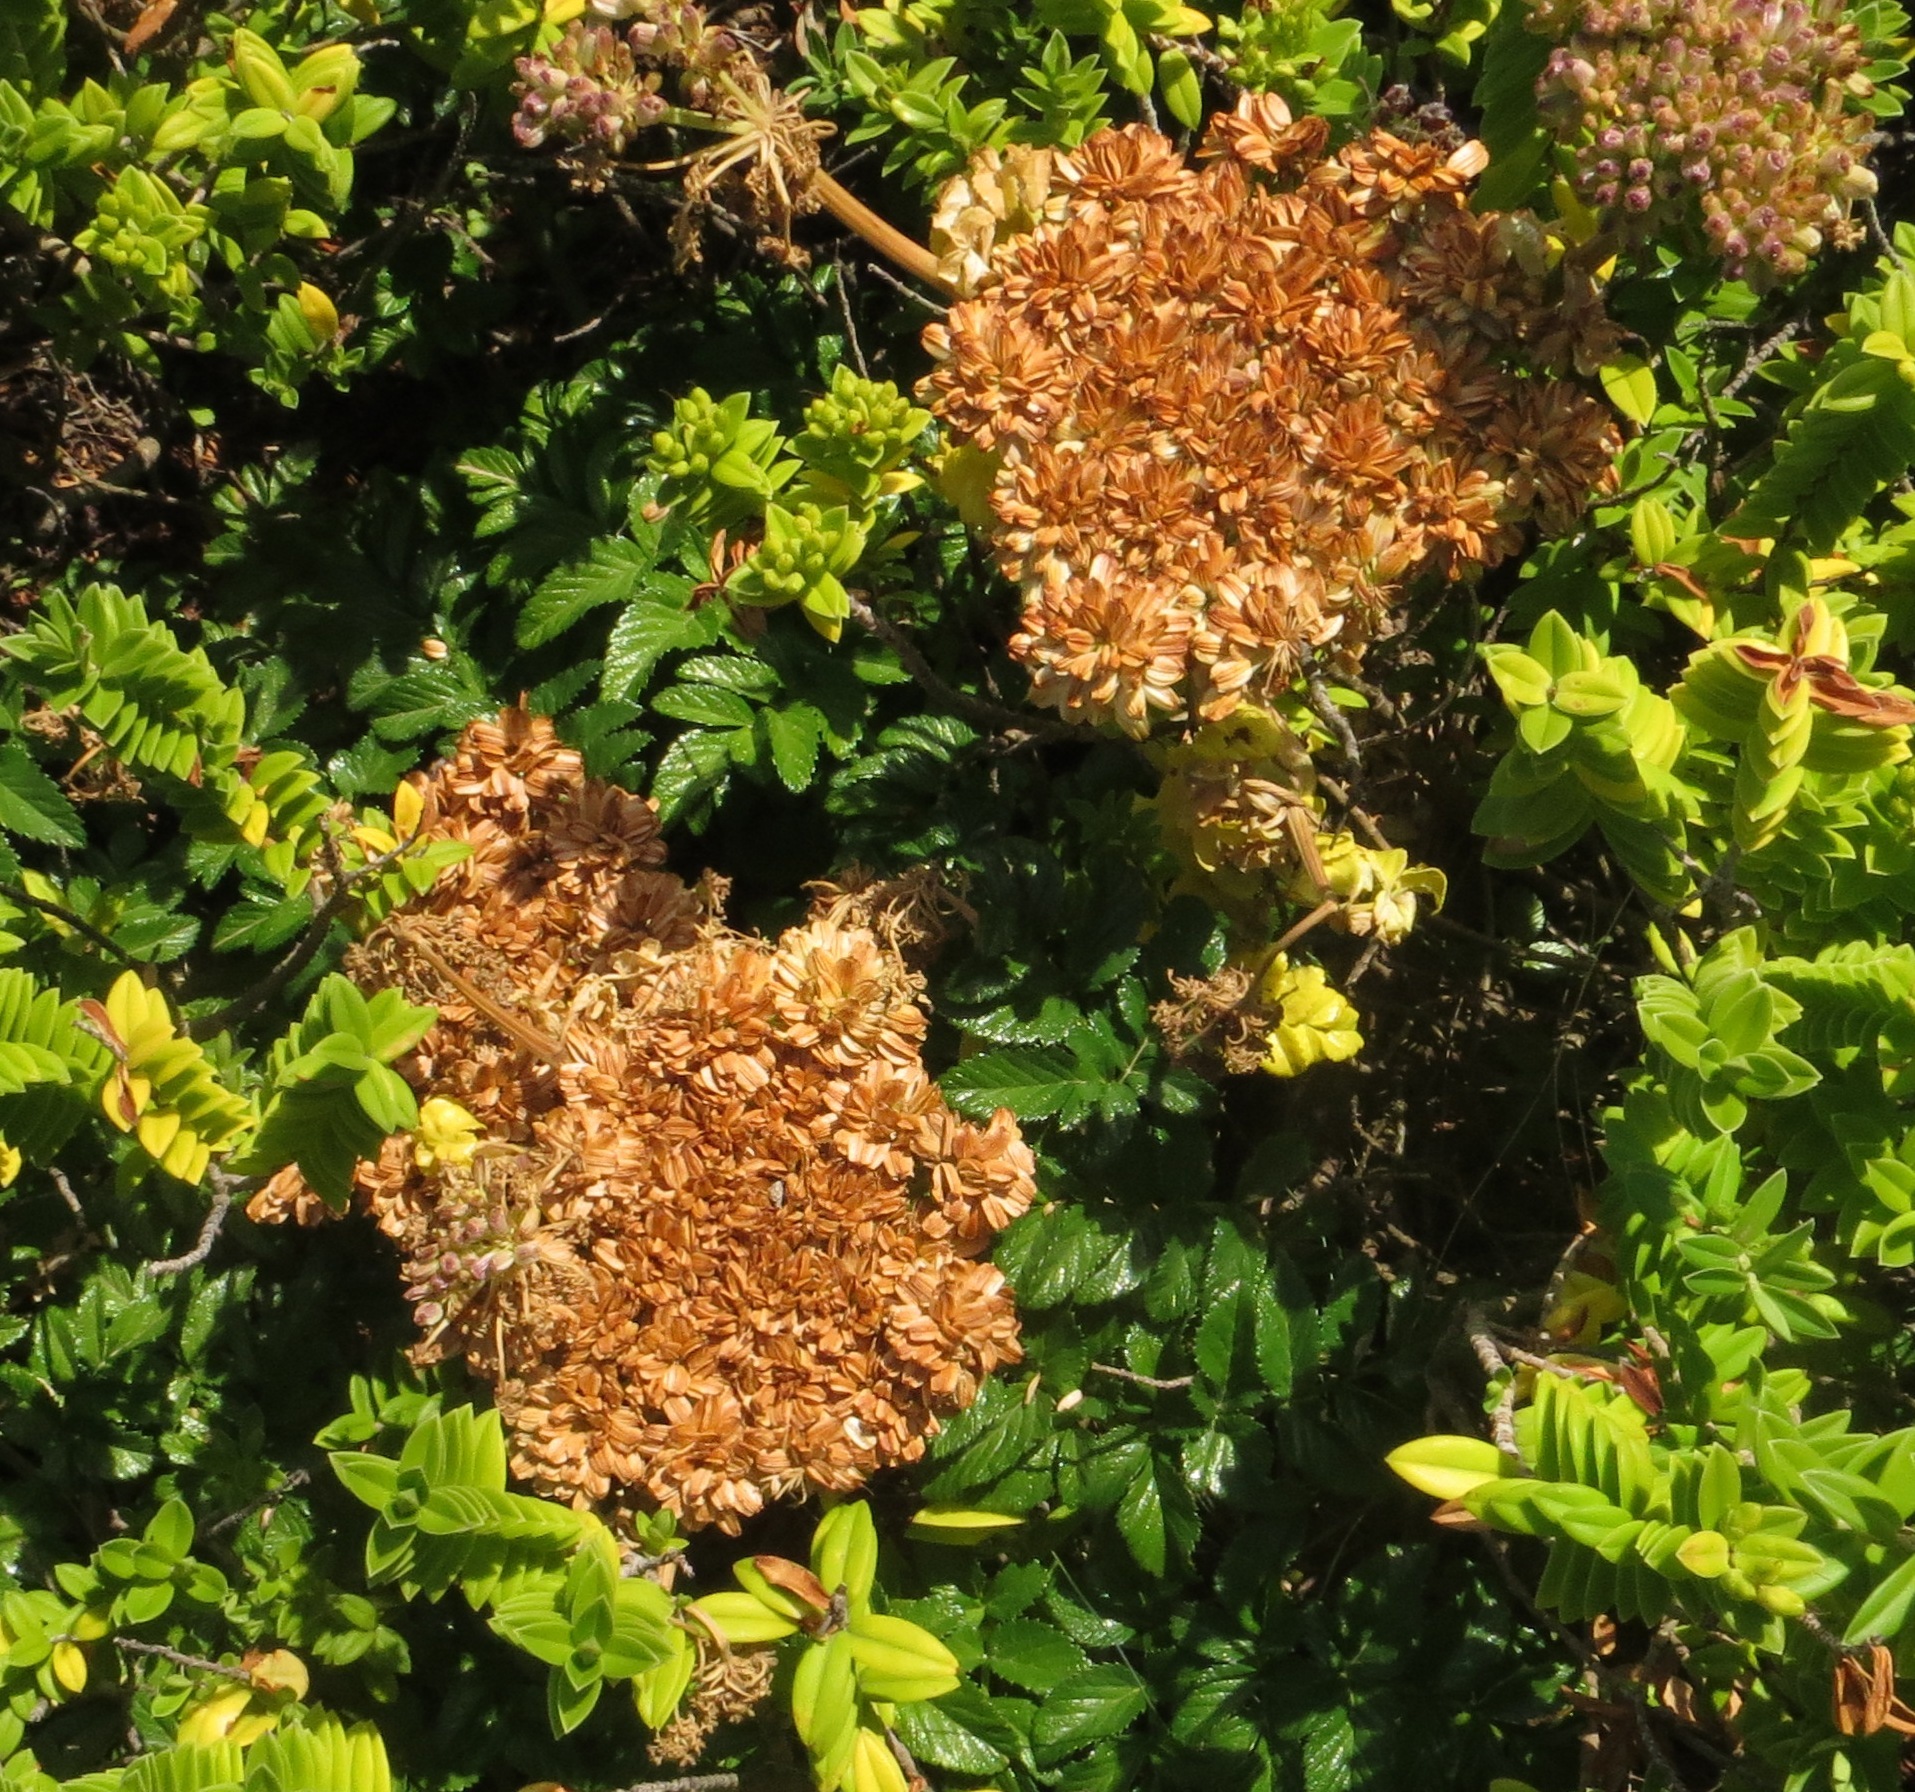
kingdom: Plantae
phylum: Tracheophyta
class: Magnoliopsida
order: Apiales
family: Apiaceae
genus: Angelica
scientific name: Angelica pachycarpa
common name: Portuguese angelica
